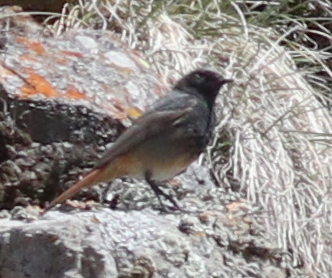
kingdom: Animalia
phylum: Chordata
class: Aves
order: Passeriformes
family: Muscicapidae
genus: Phoenicurus
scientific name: Phoenicurus ochruros
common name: Black redstart
